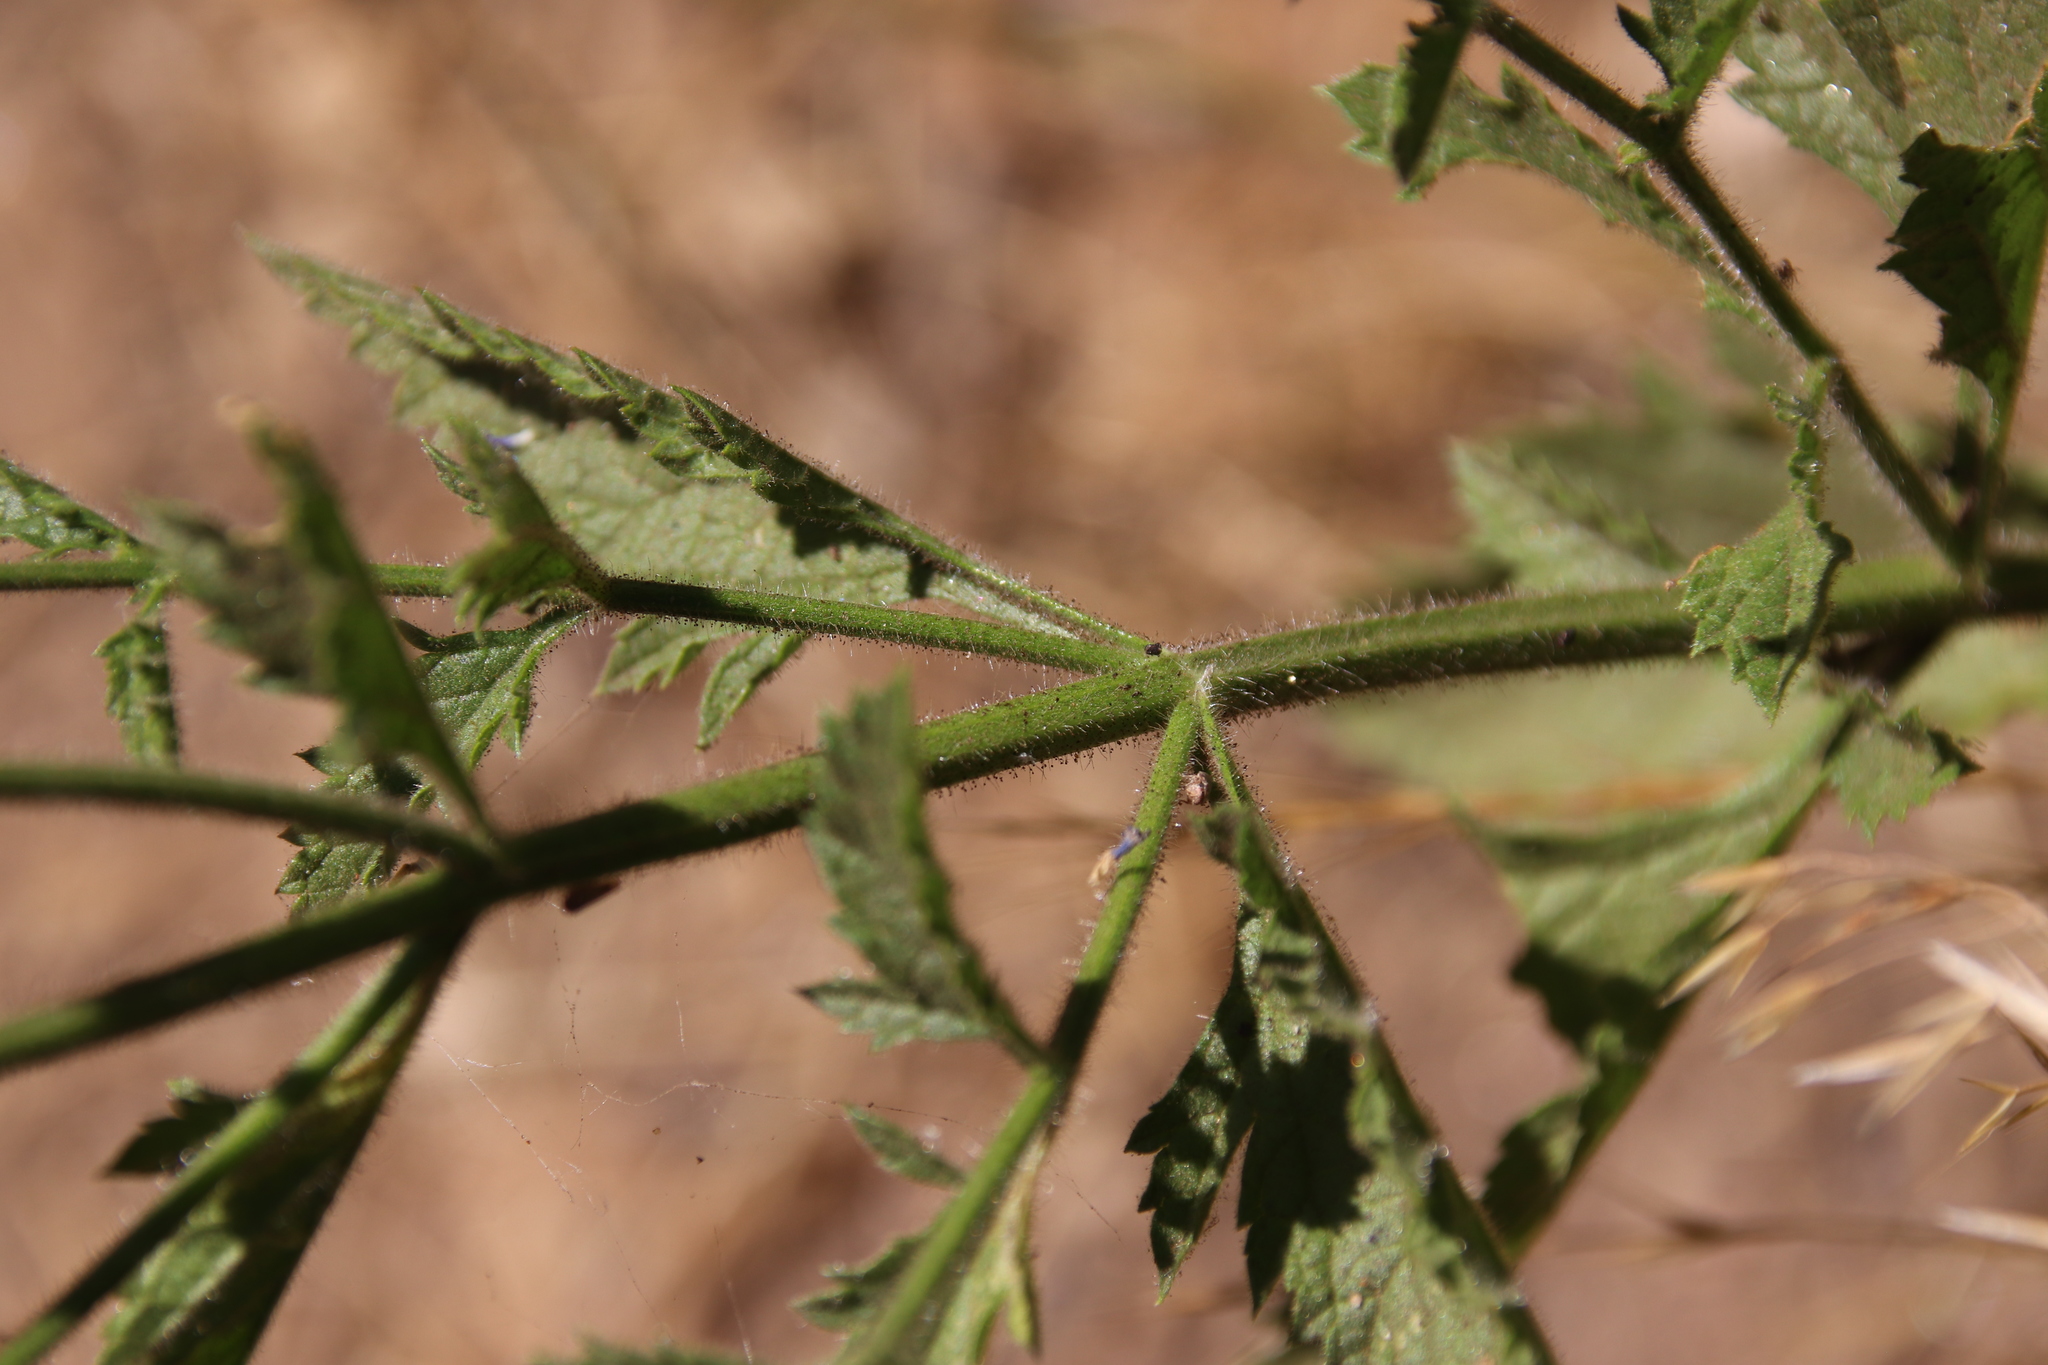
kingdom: Plantae
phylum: Tracheophyta
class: Magnoliopsida
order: Lamiales
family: Verbenaceae
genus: Verbena
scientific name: Verbena lasiostachys
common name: Vervain
